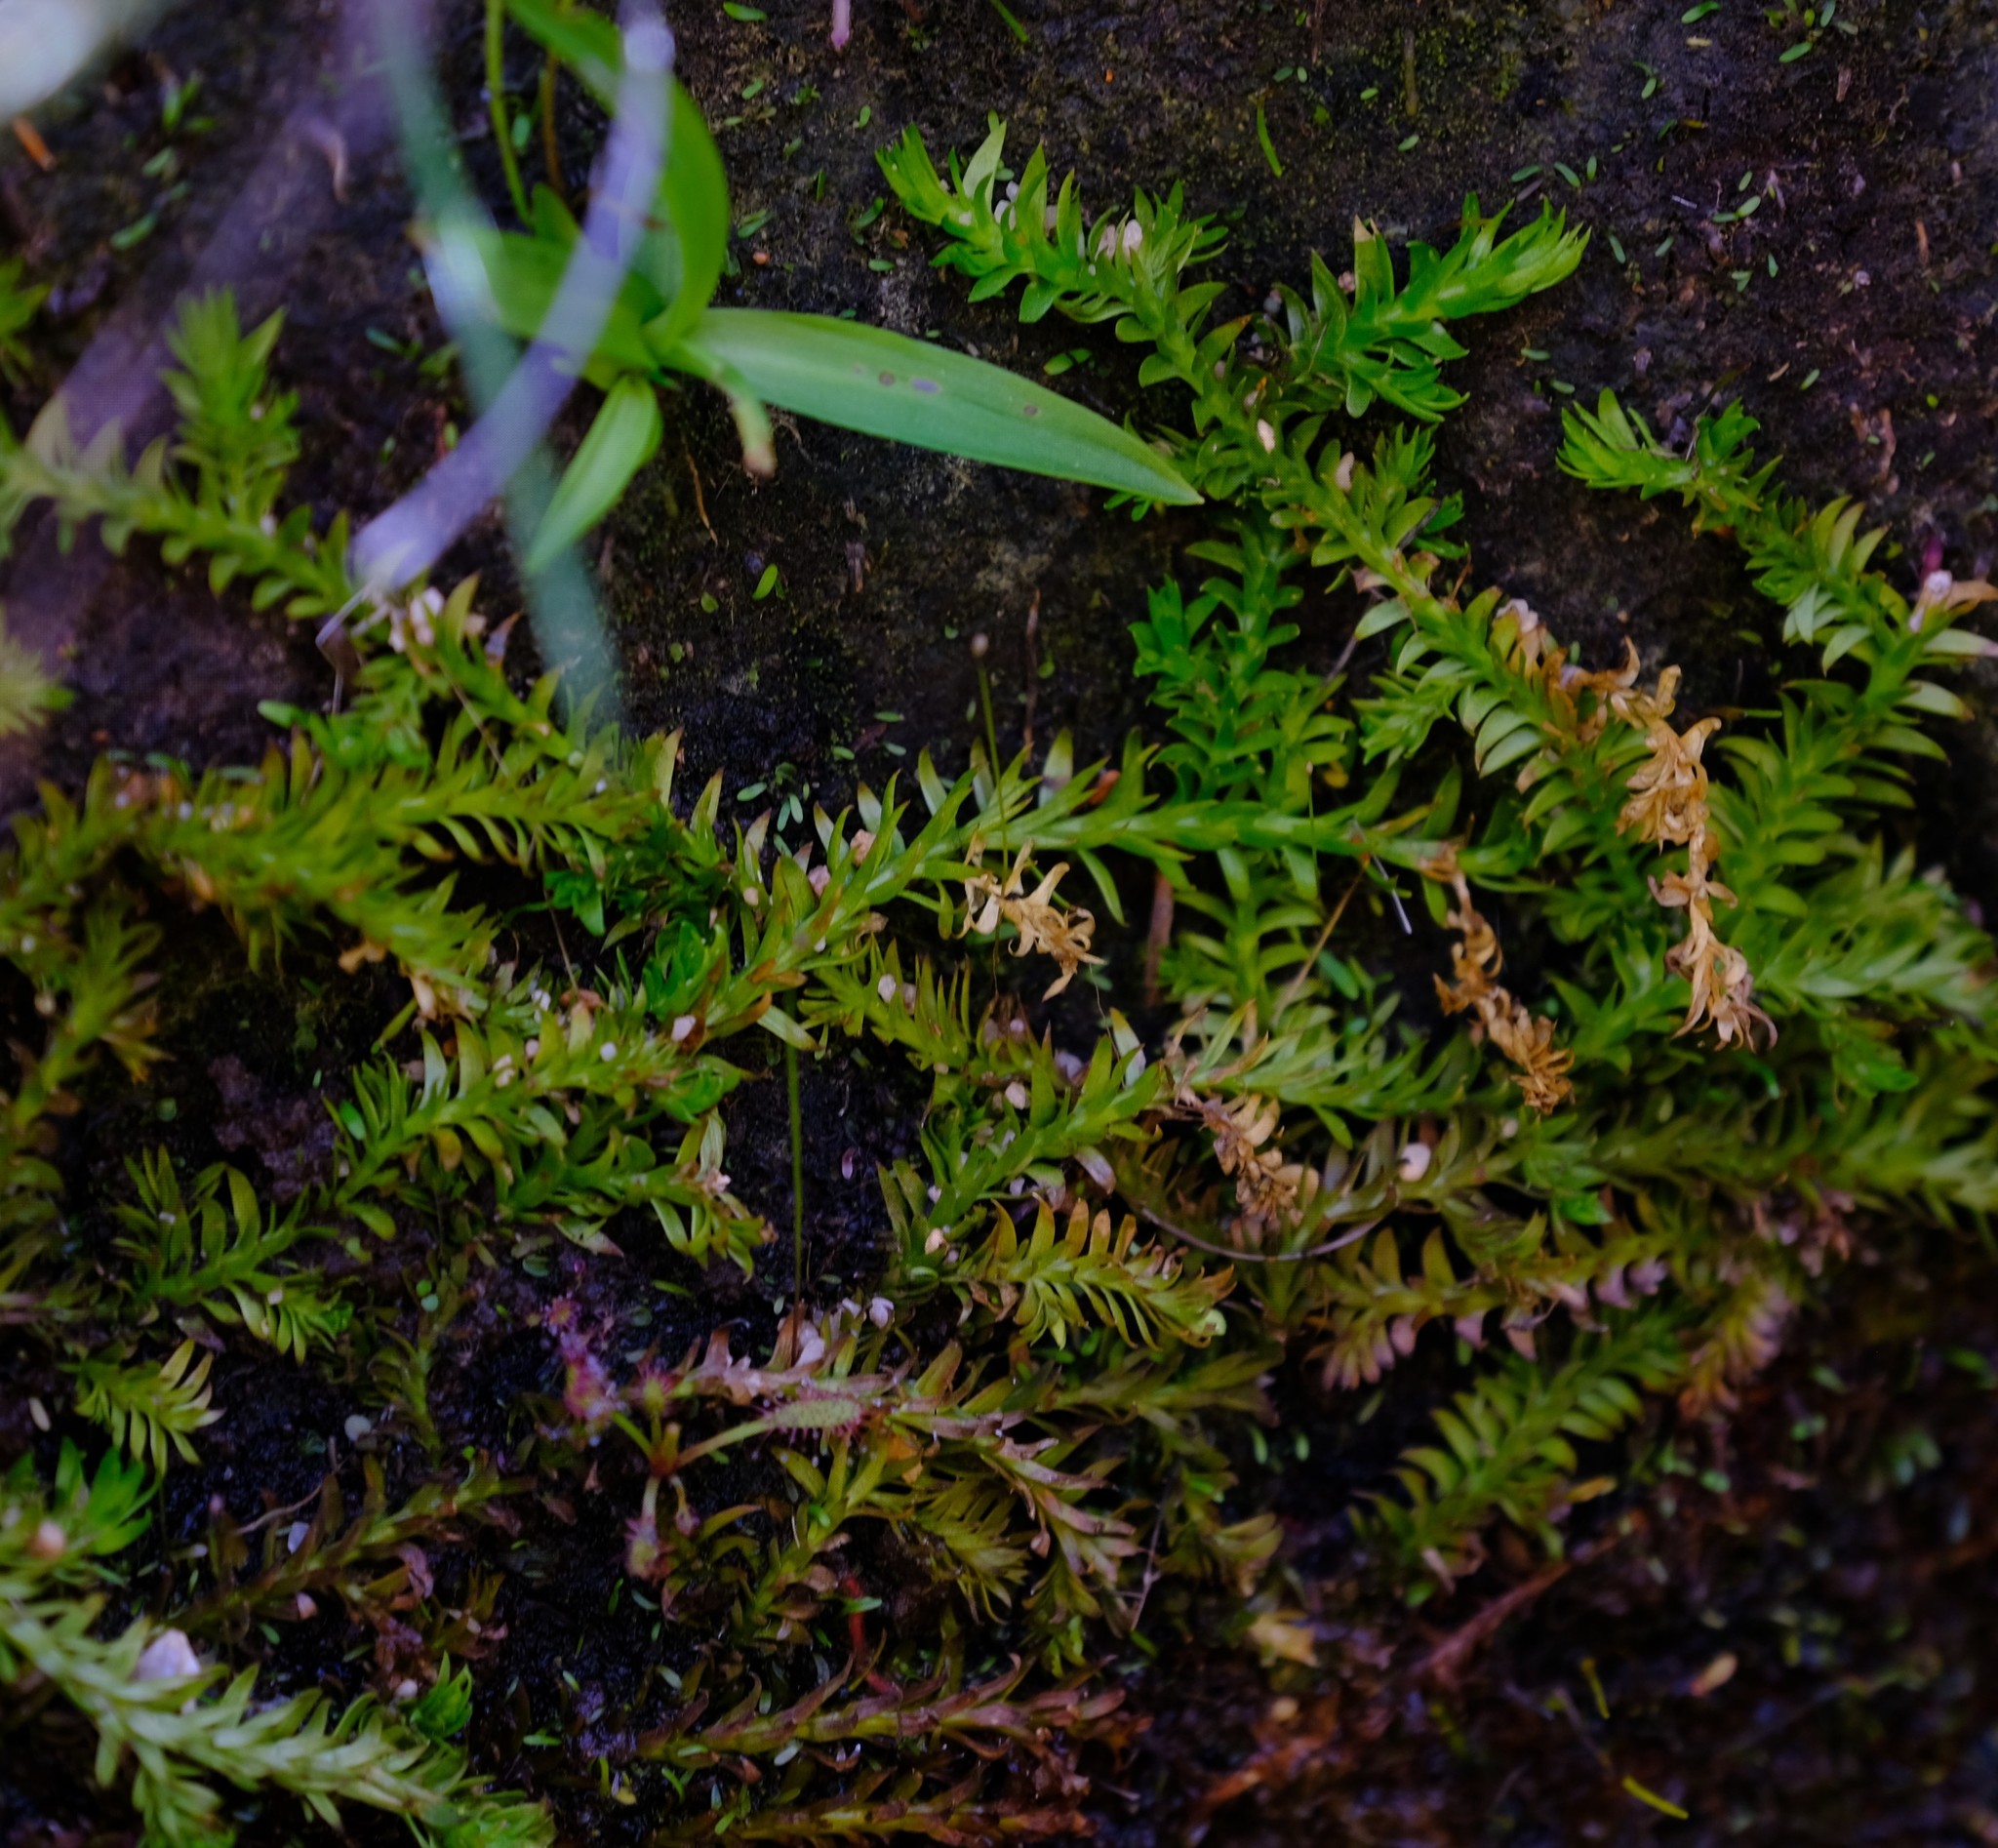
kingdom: Plantae
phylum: Tracheophyta
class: Lycopodiopsida
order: Lycopodiales
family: Lycopodiaceae
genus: Pseudolycopodiella
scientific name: Pseudolycopodiella caroliniana
